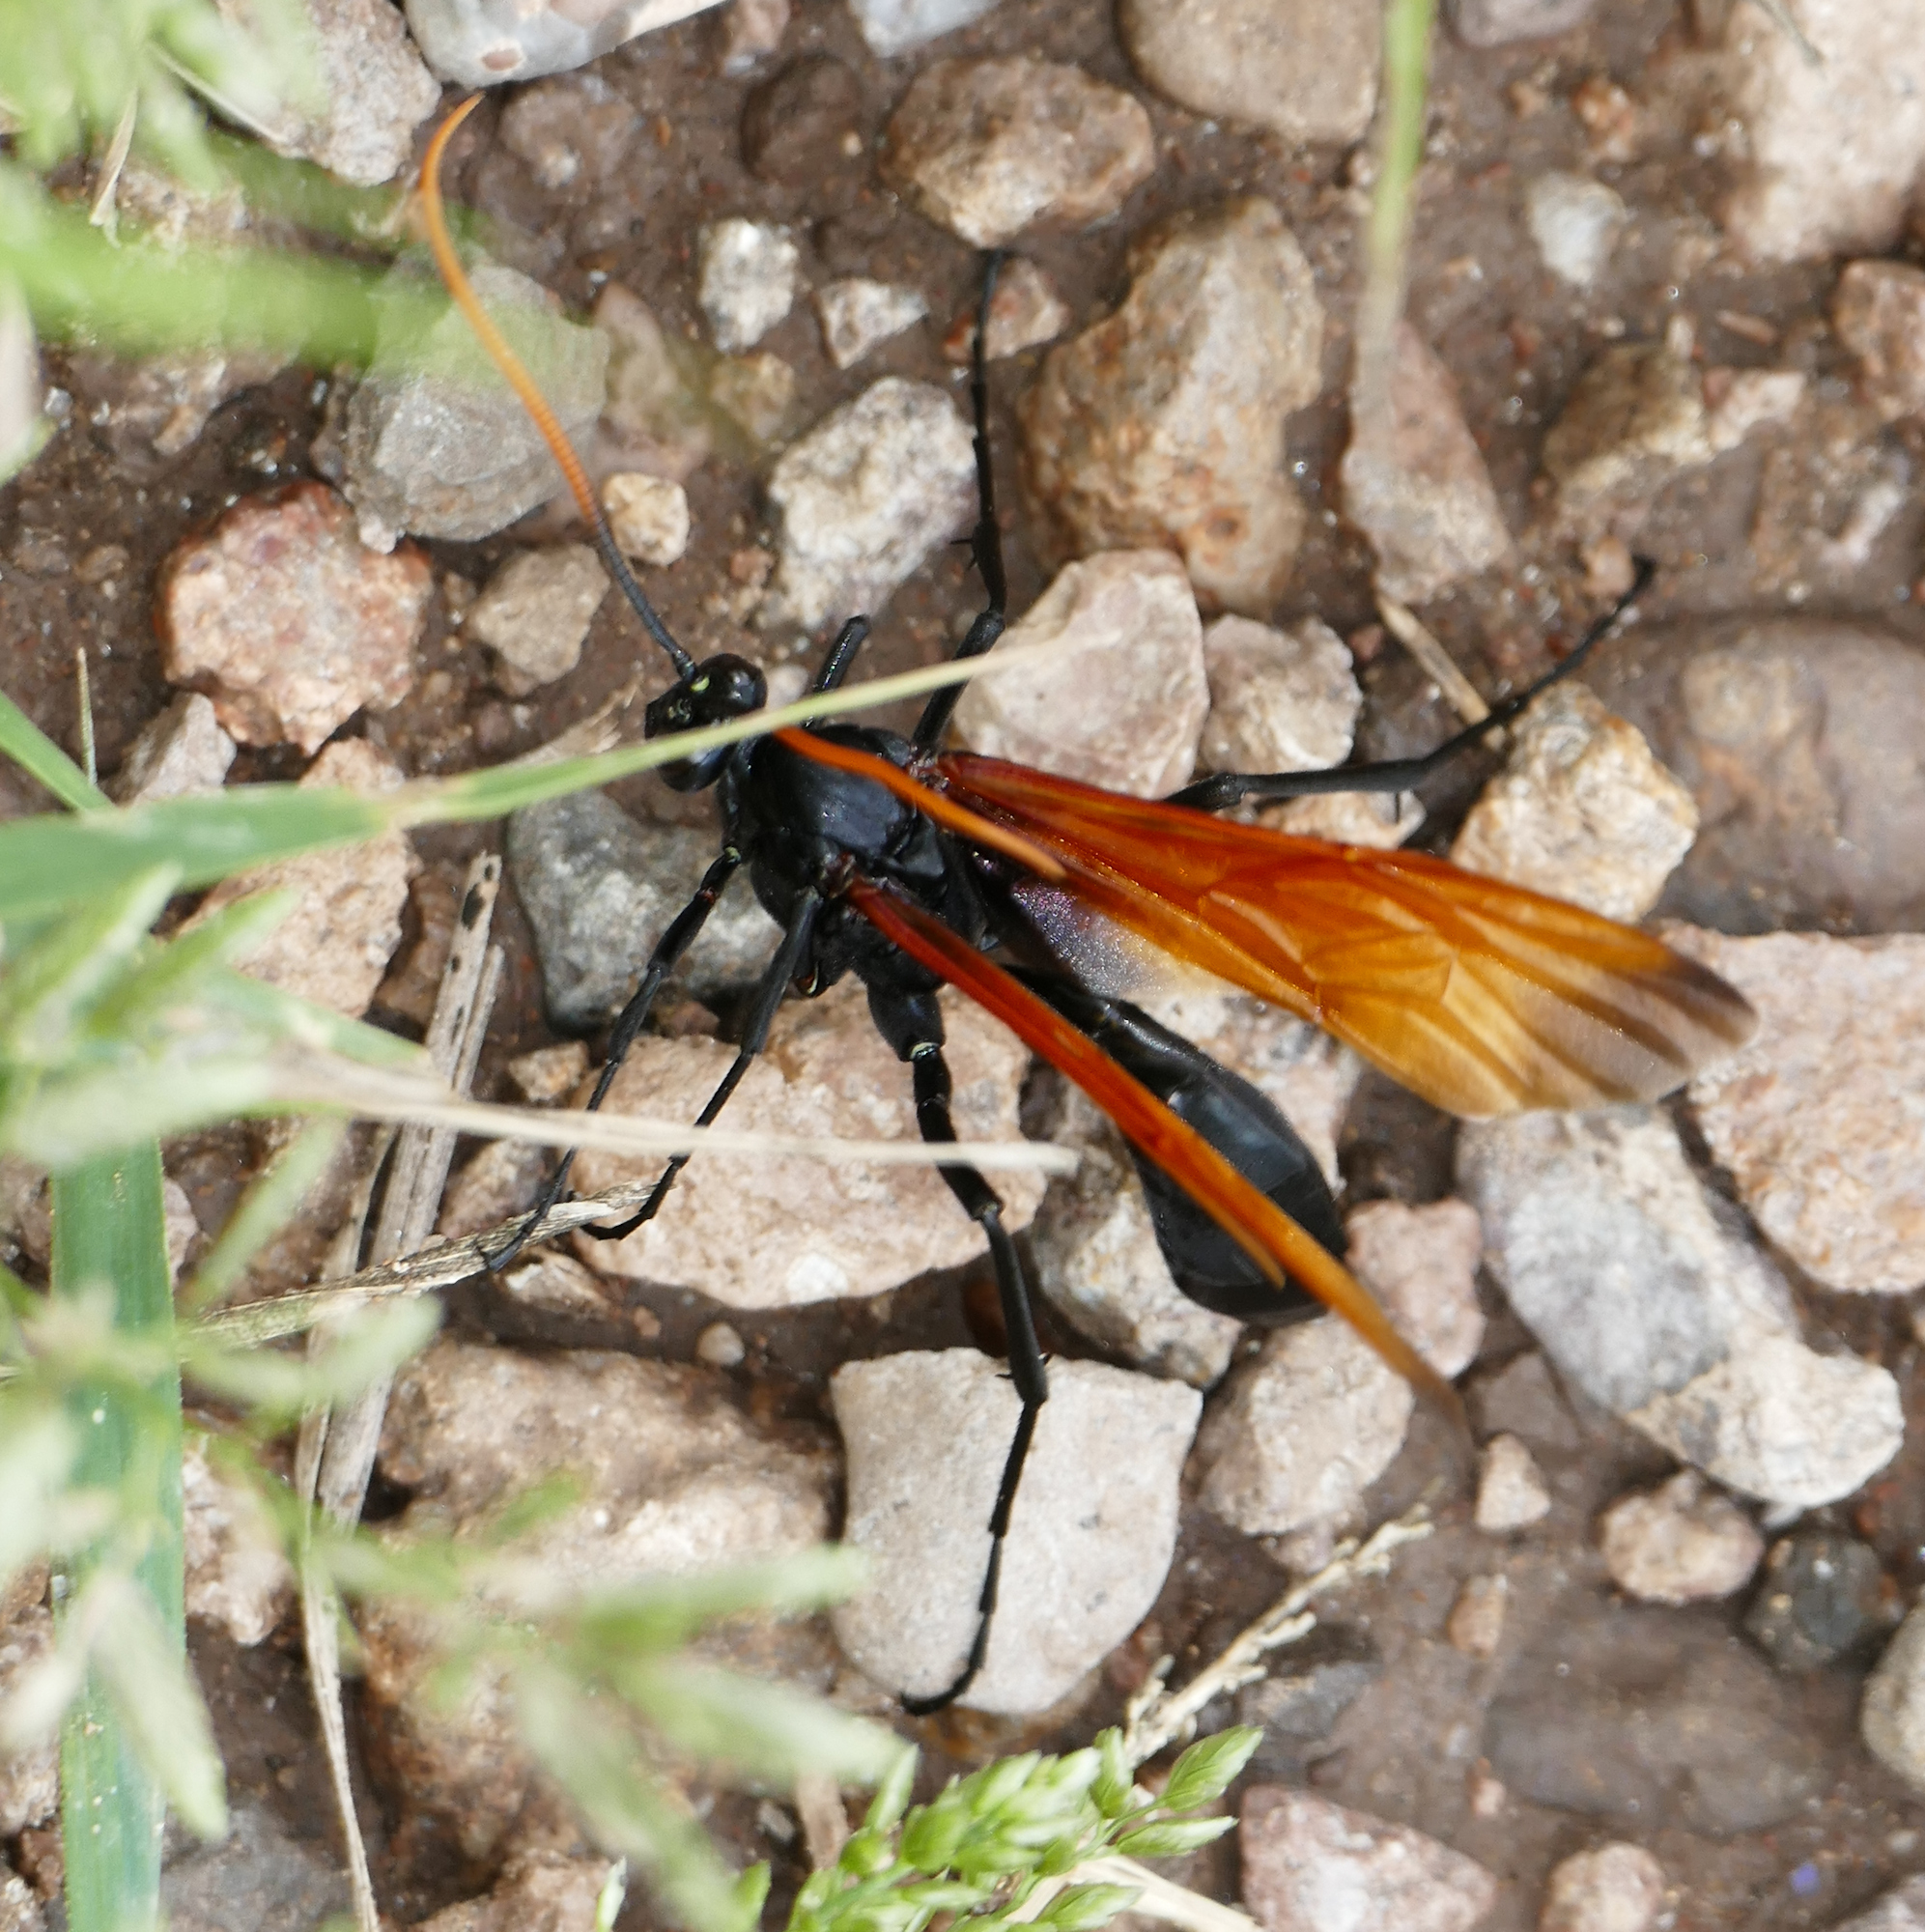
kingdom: Animalia
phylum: Arthropoda
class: Insecta
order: Hymenoptera
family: Ichneumonidae
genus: Rhynchophion
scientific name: Rhynchophion flammipennis
